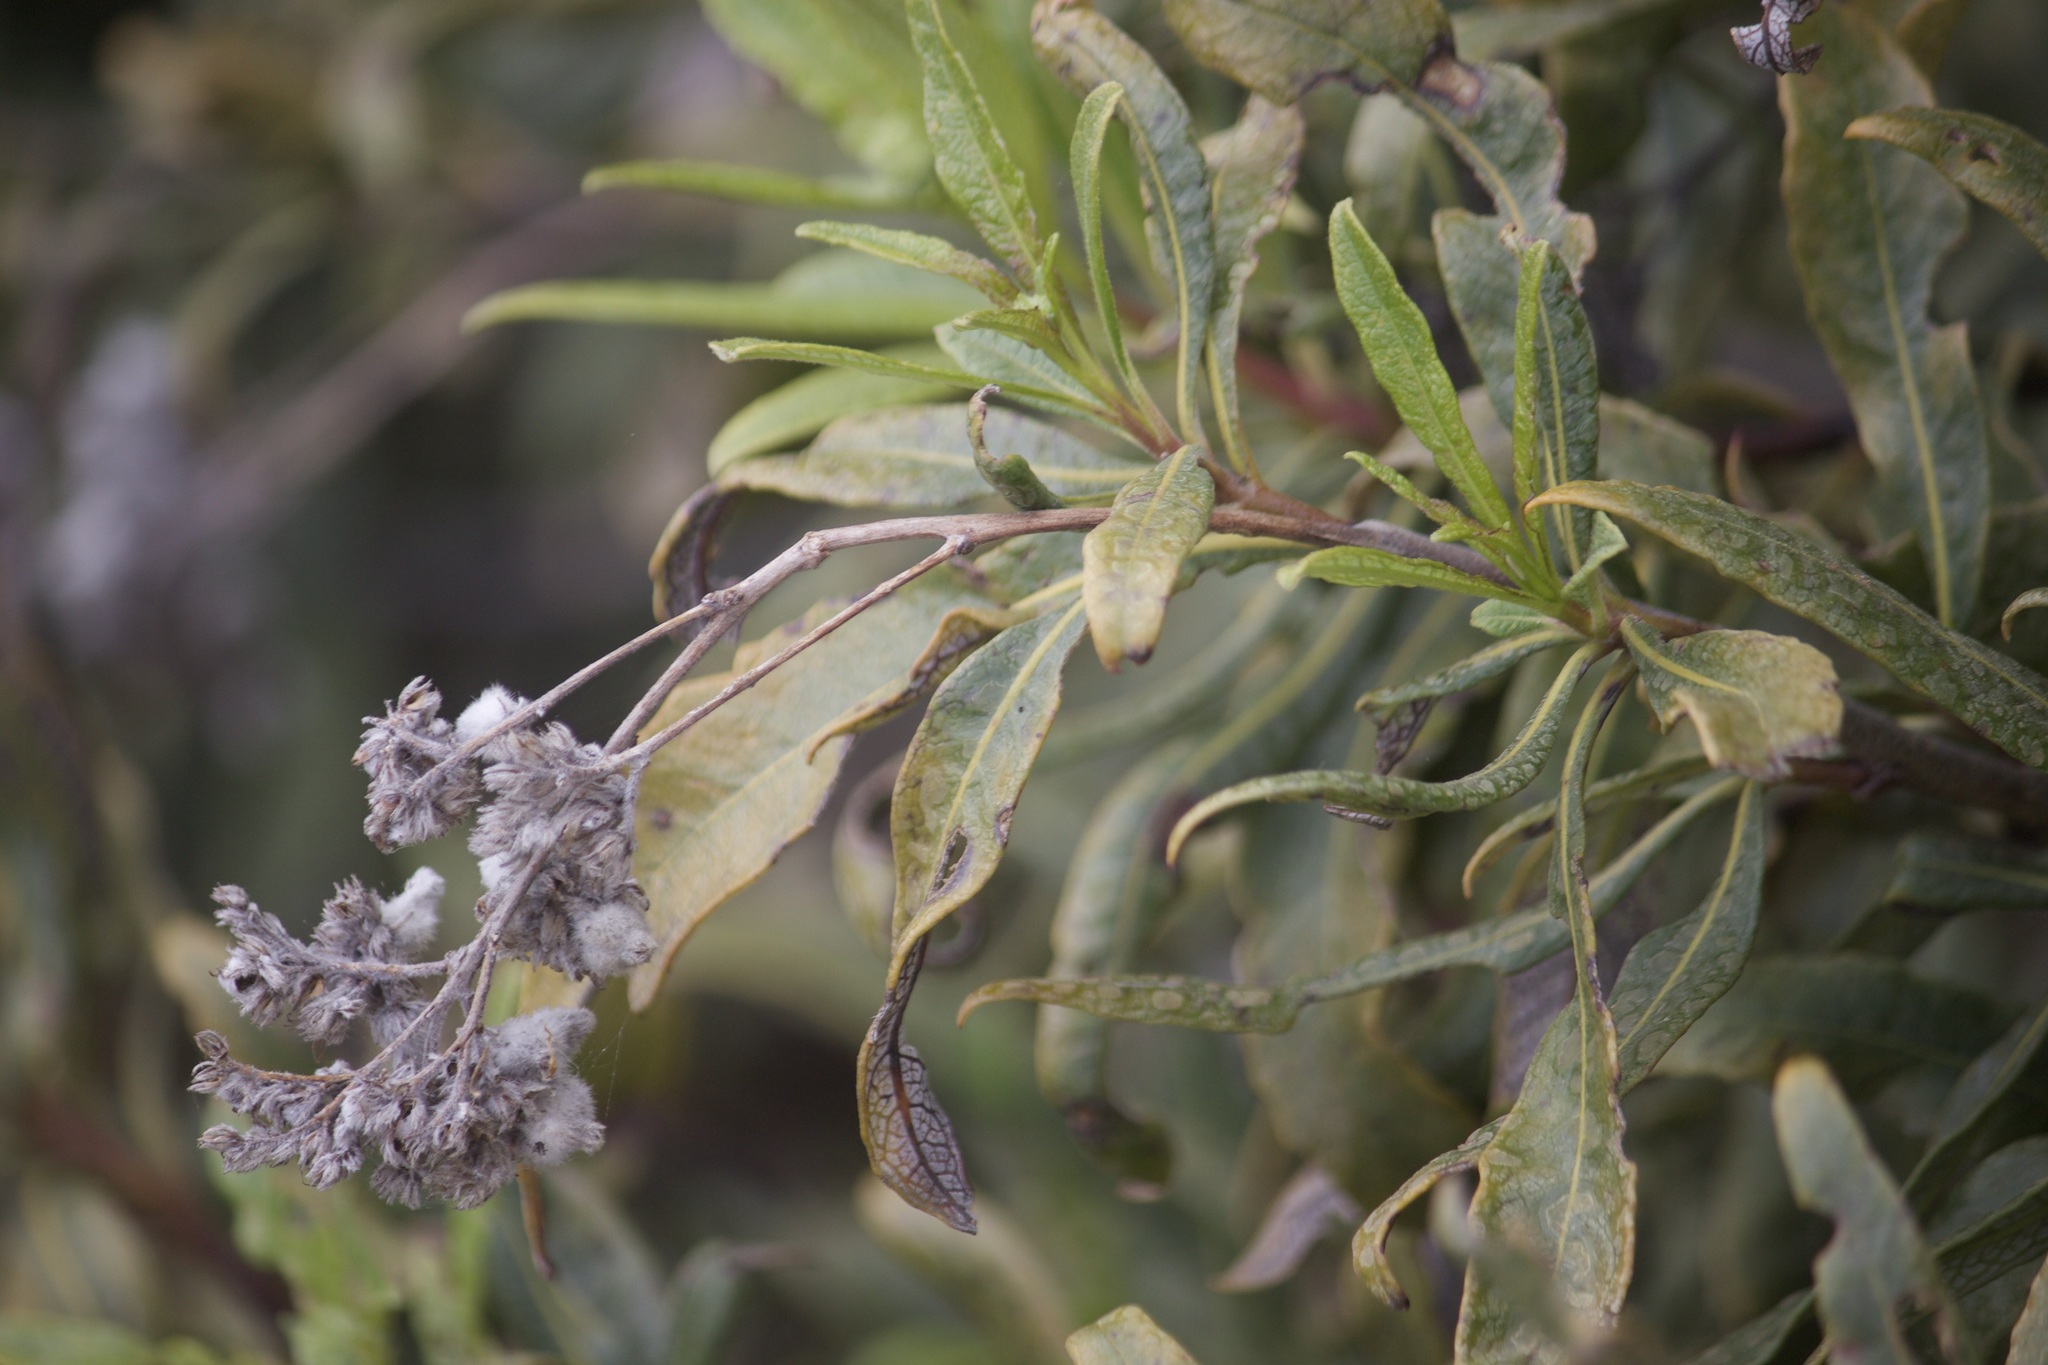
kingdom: Plantae
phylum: Tracheophyta
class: Magnoliopsida
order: Boraginales
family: Namaceae
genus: Eriodictyon
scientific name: Eriodictyon trichocalyx
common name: Hairy yerba-santa
